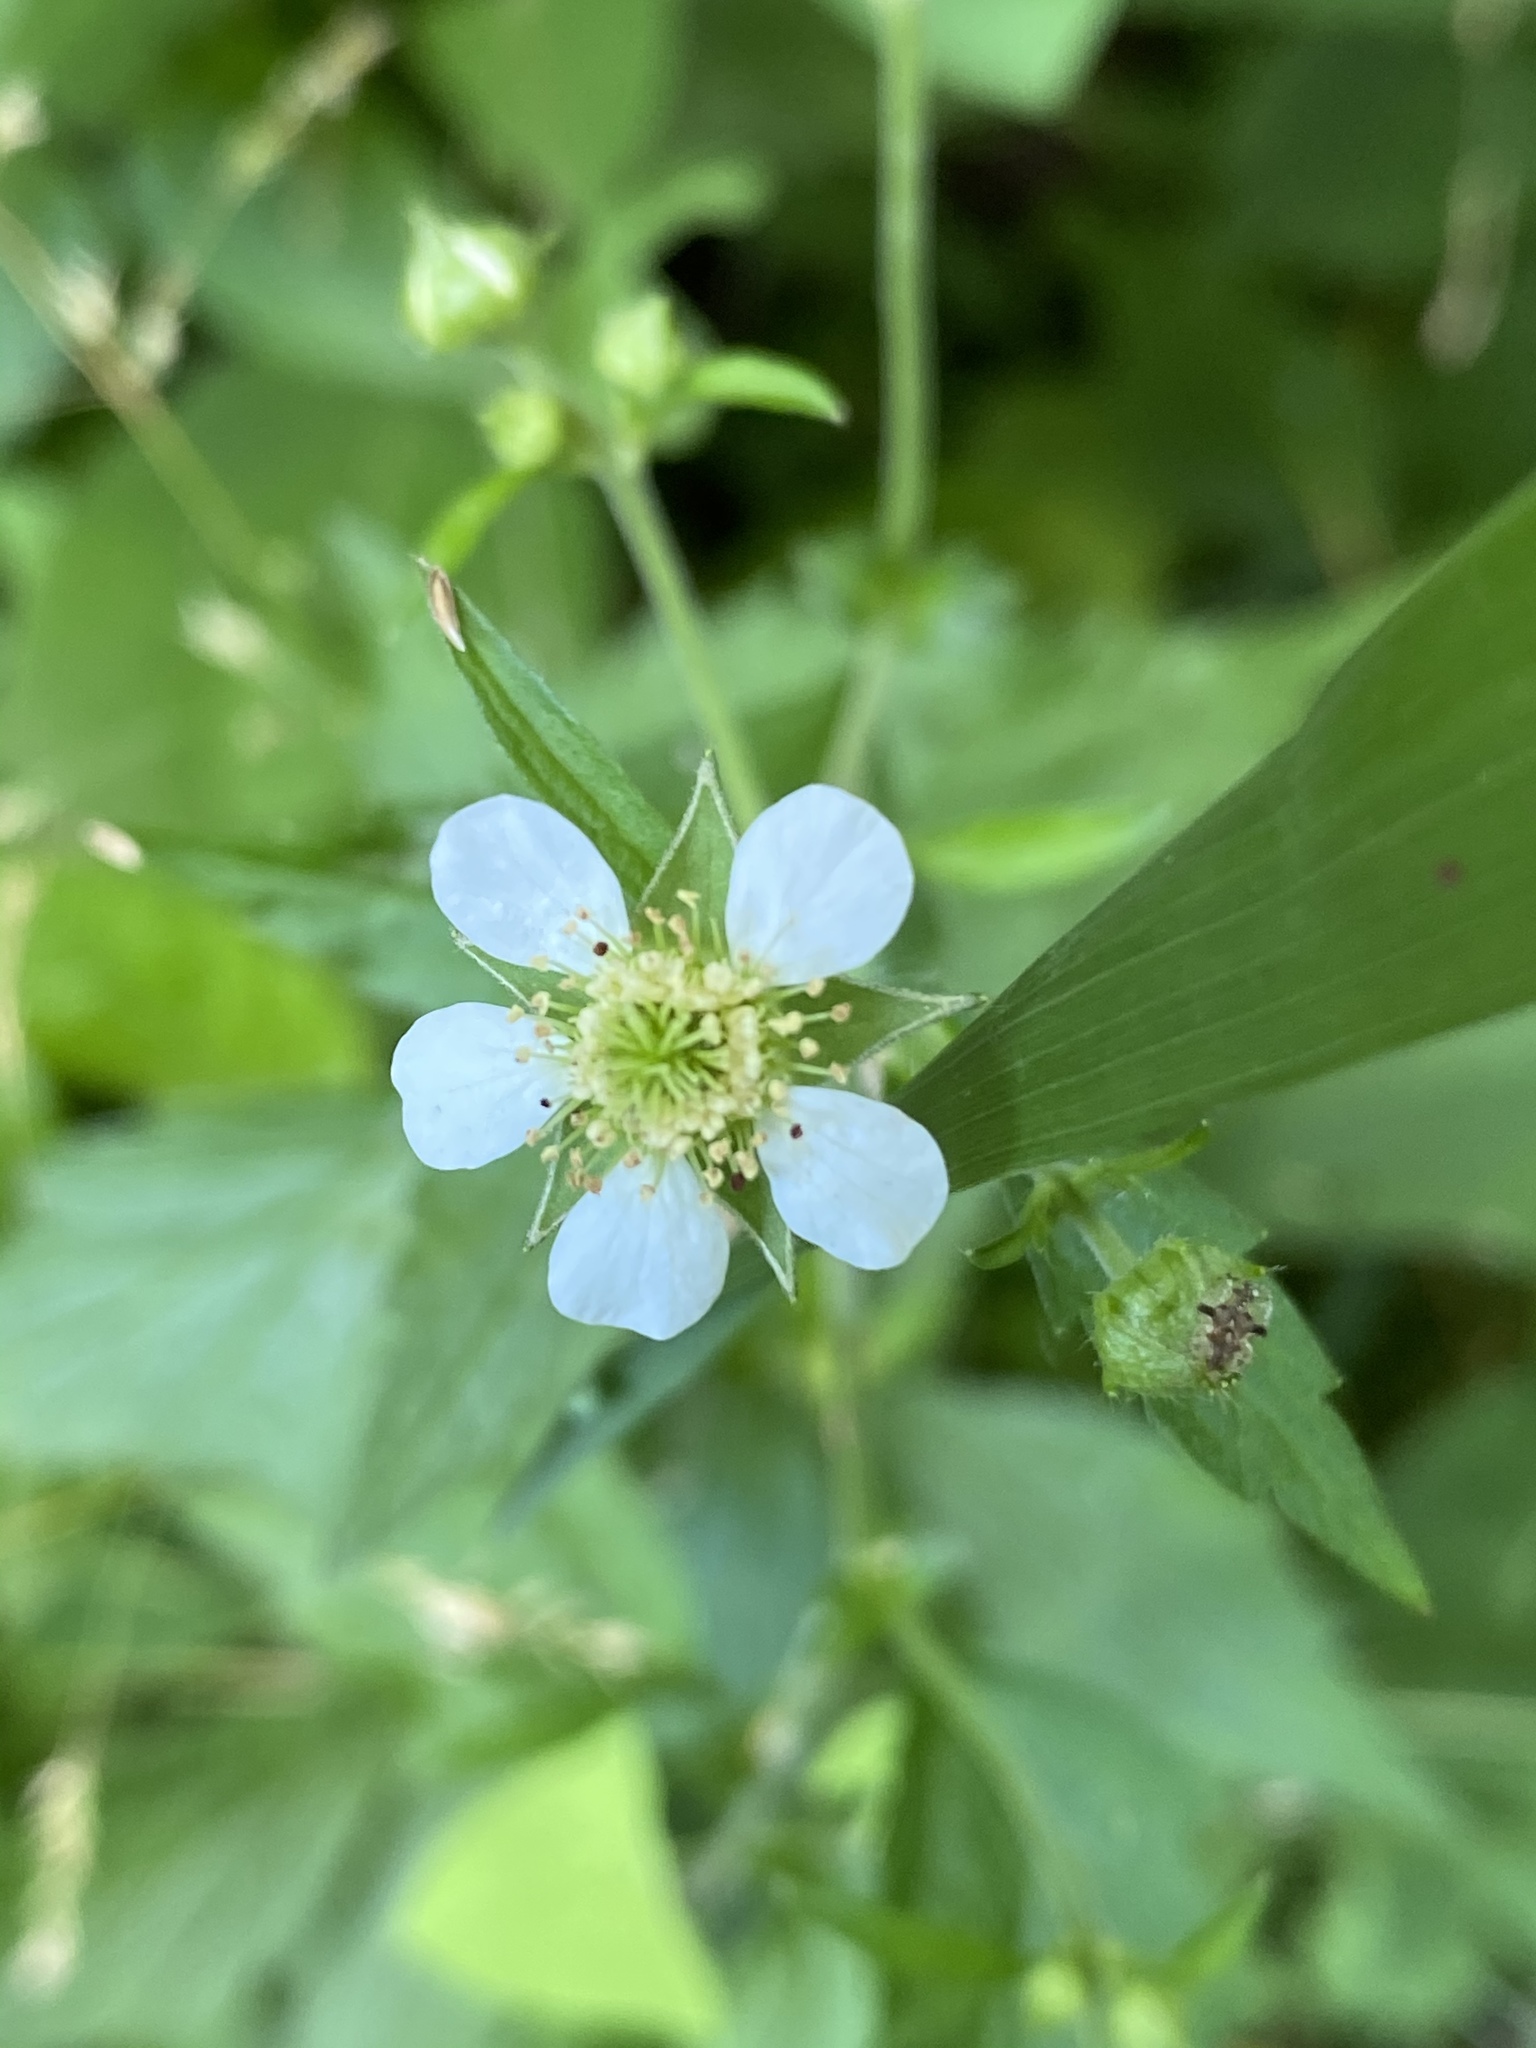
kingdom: Plantae
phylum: Tracheophyta
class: Magnoliopsida
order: Rosales
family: Rosaceae
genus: Geum
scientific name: Geum canadense
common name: White avens
